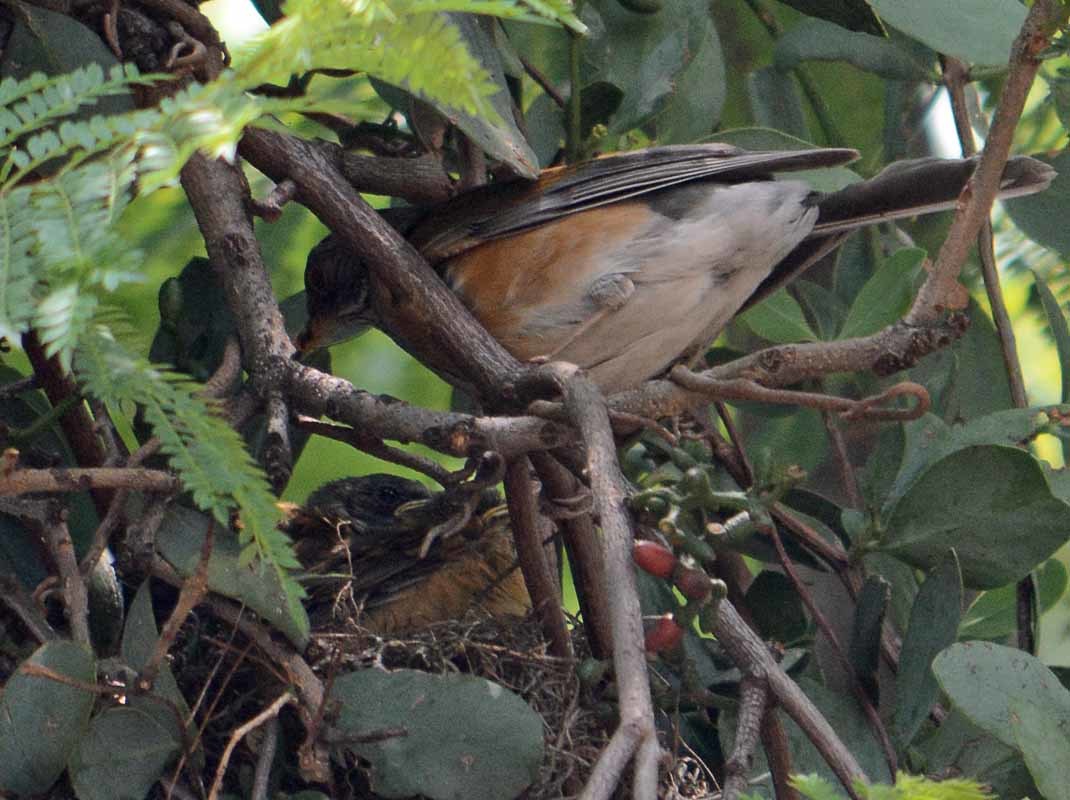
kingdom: Animalia
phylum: Chordata
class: Aves
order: Passeriformes
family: Turdidae
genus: Turdus
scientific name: Turdus rufopalliatus
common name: Rufous-backed robin
